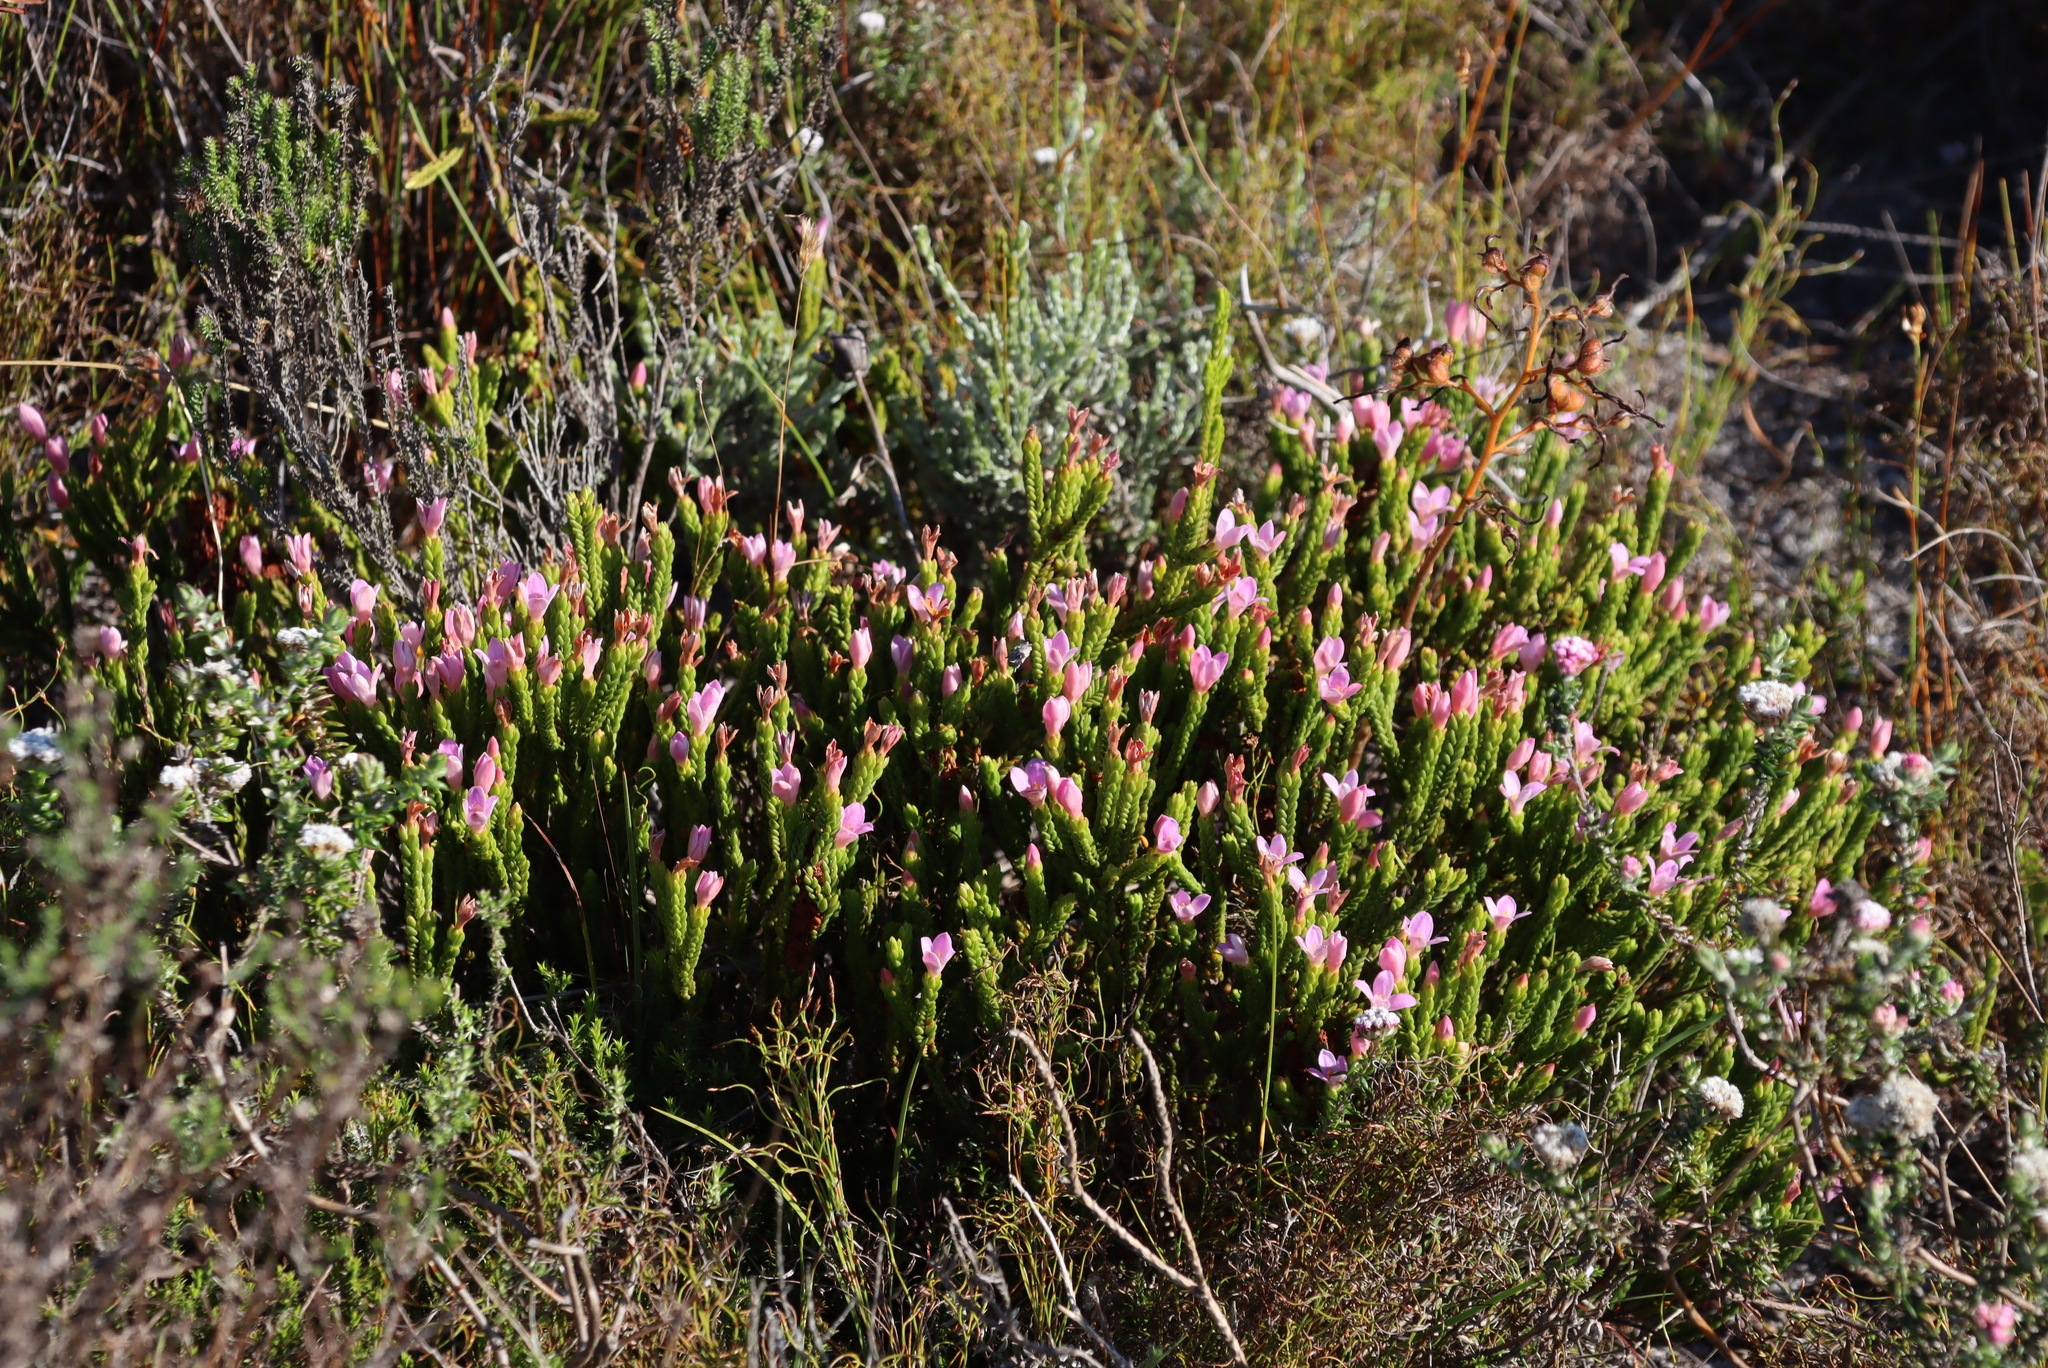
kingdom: Plantae
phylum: Tracheophyta
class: Magnoliopsida
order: Malvales
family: Thymelaeaceae
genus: Lachnaea
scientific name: Lachnaea grandiflora
